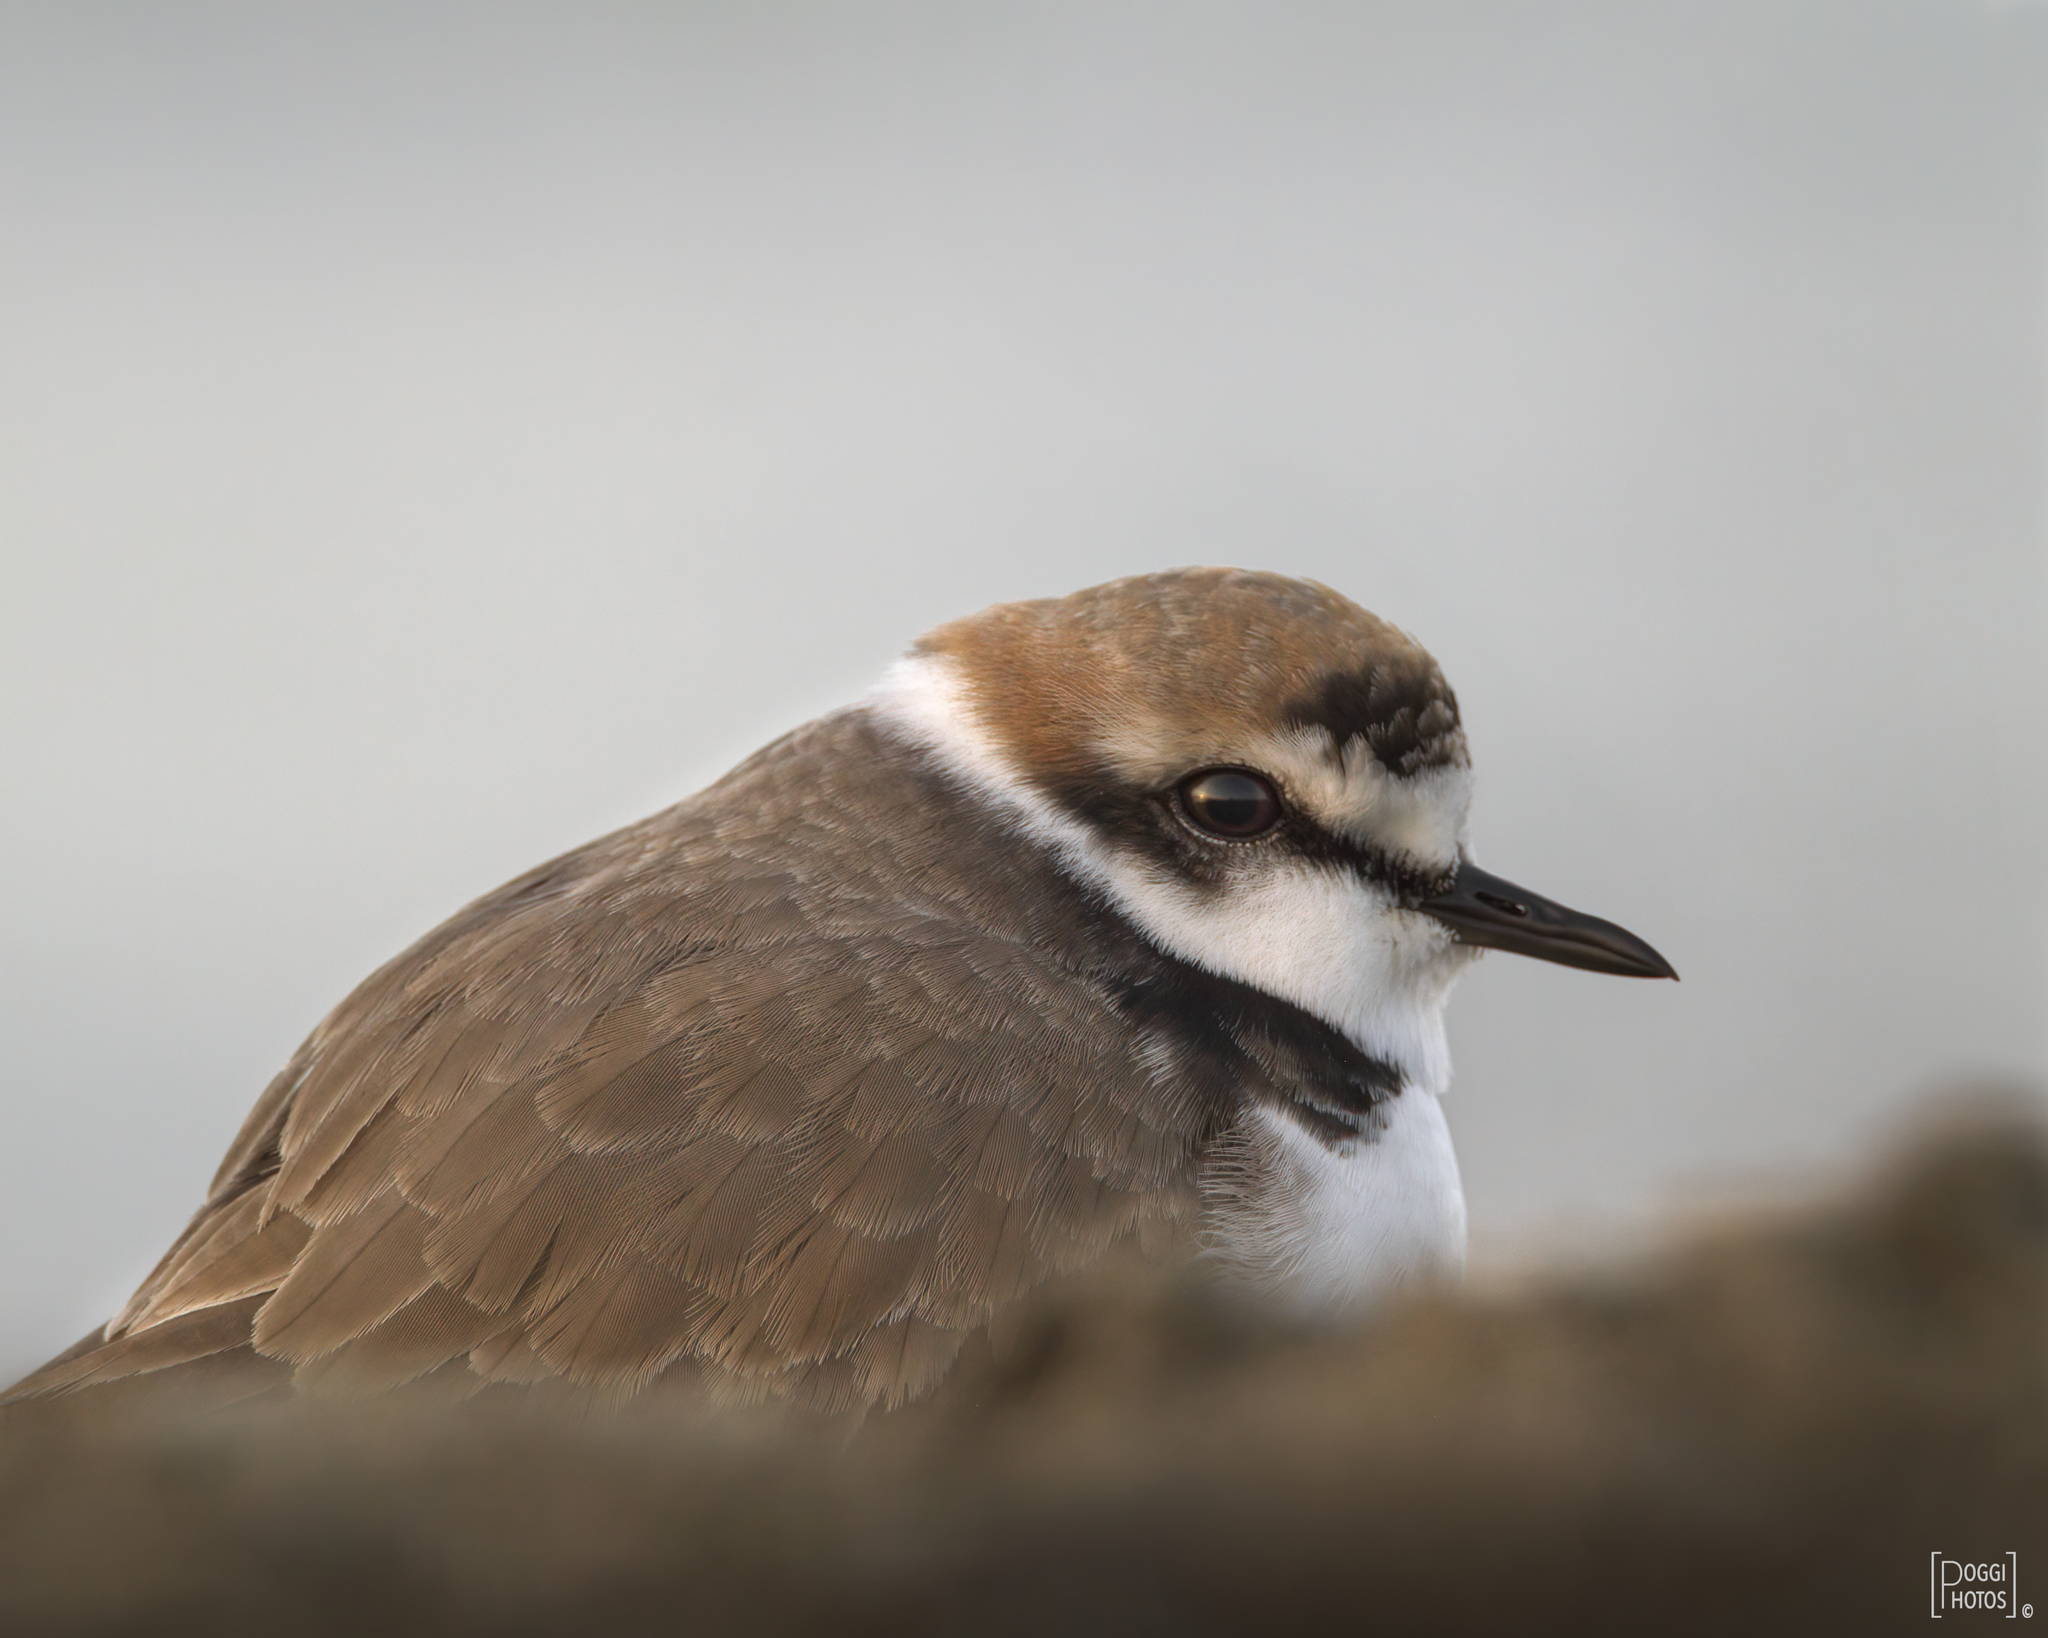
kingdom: Animalia
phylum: Chordata
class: Aves
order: Charadriiformes
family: Charadriidae
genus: Charadrius
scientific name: Charadrius alexandrinus
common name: Kentish plover
